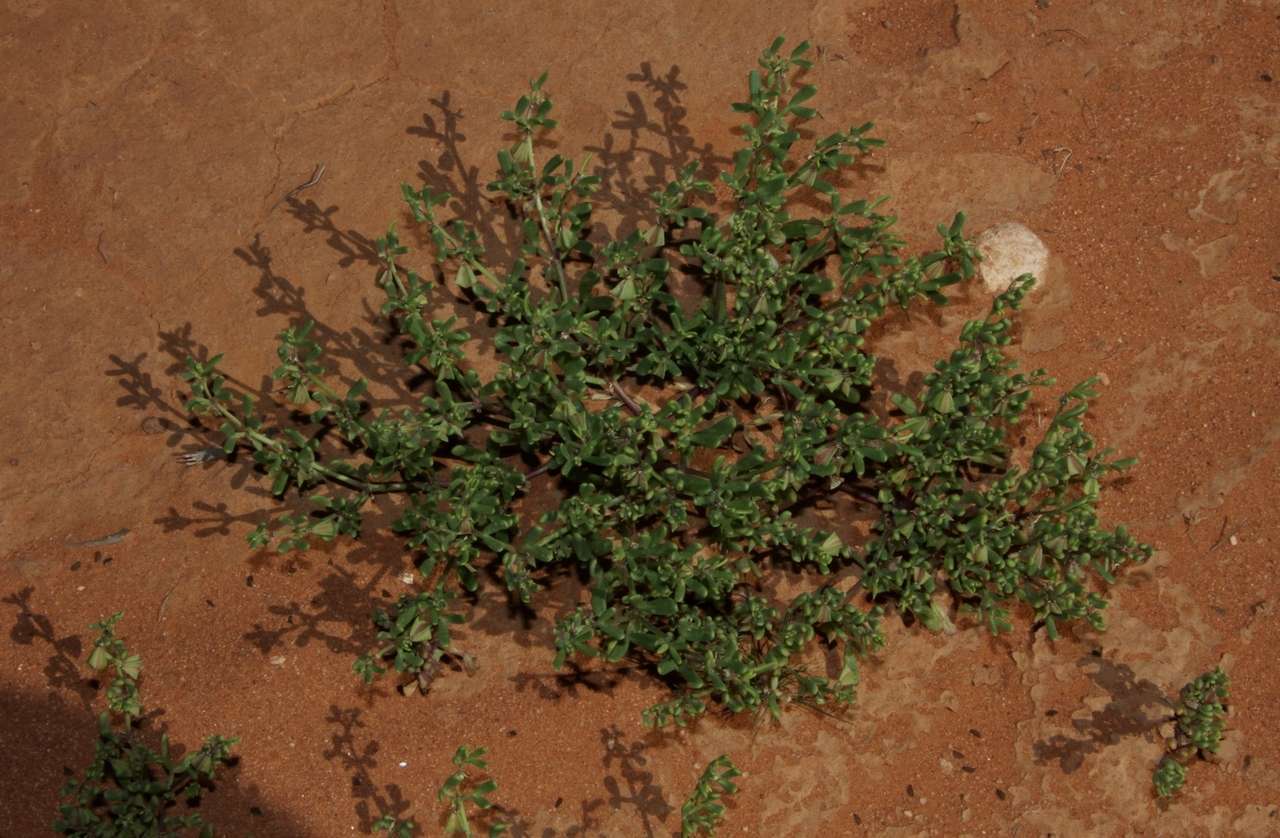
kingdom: Plantae
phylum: Tracheophyta
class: Magnoliopsida
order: Zygophyllales
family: Zygophyllaceae
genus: Roepera
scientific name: Roepera similis
